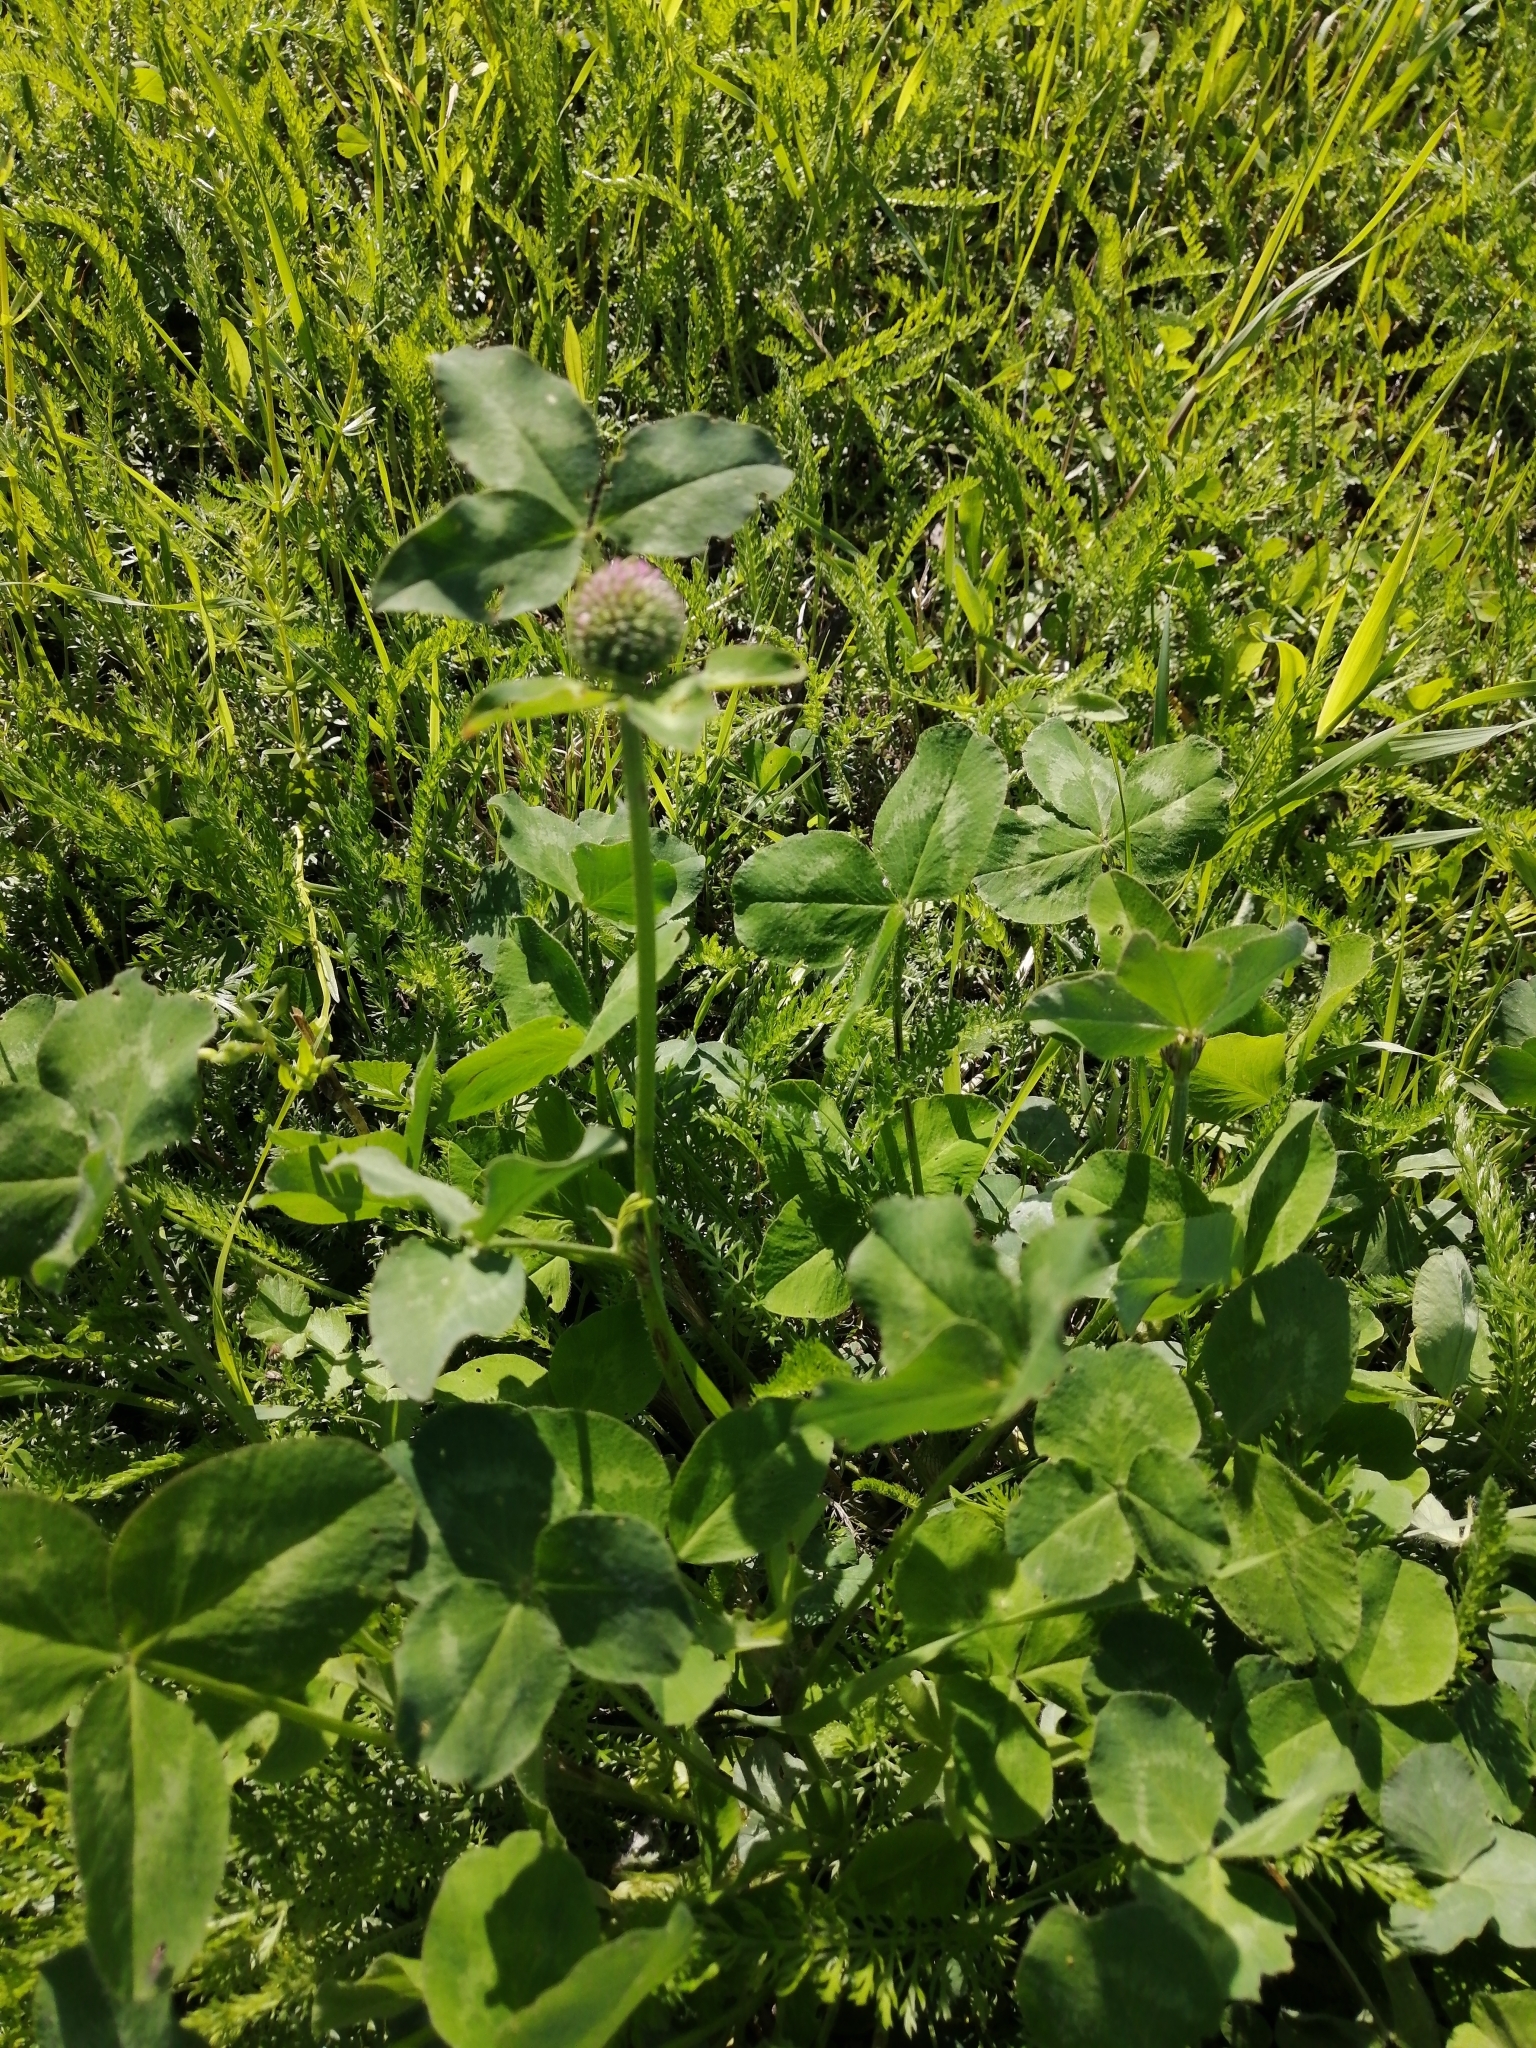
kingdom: Plantae
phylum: Tracheophyta
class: Magnoliopsida
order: Fabales
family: Fabaceae
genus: Trifolium
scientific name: Trifolium pratense
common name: Red clover
